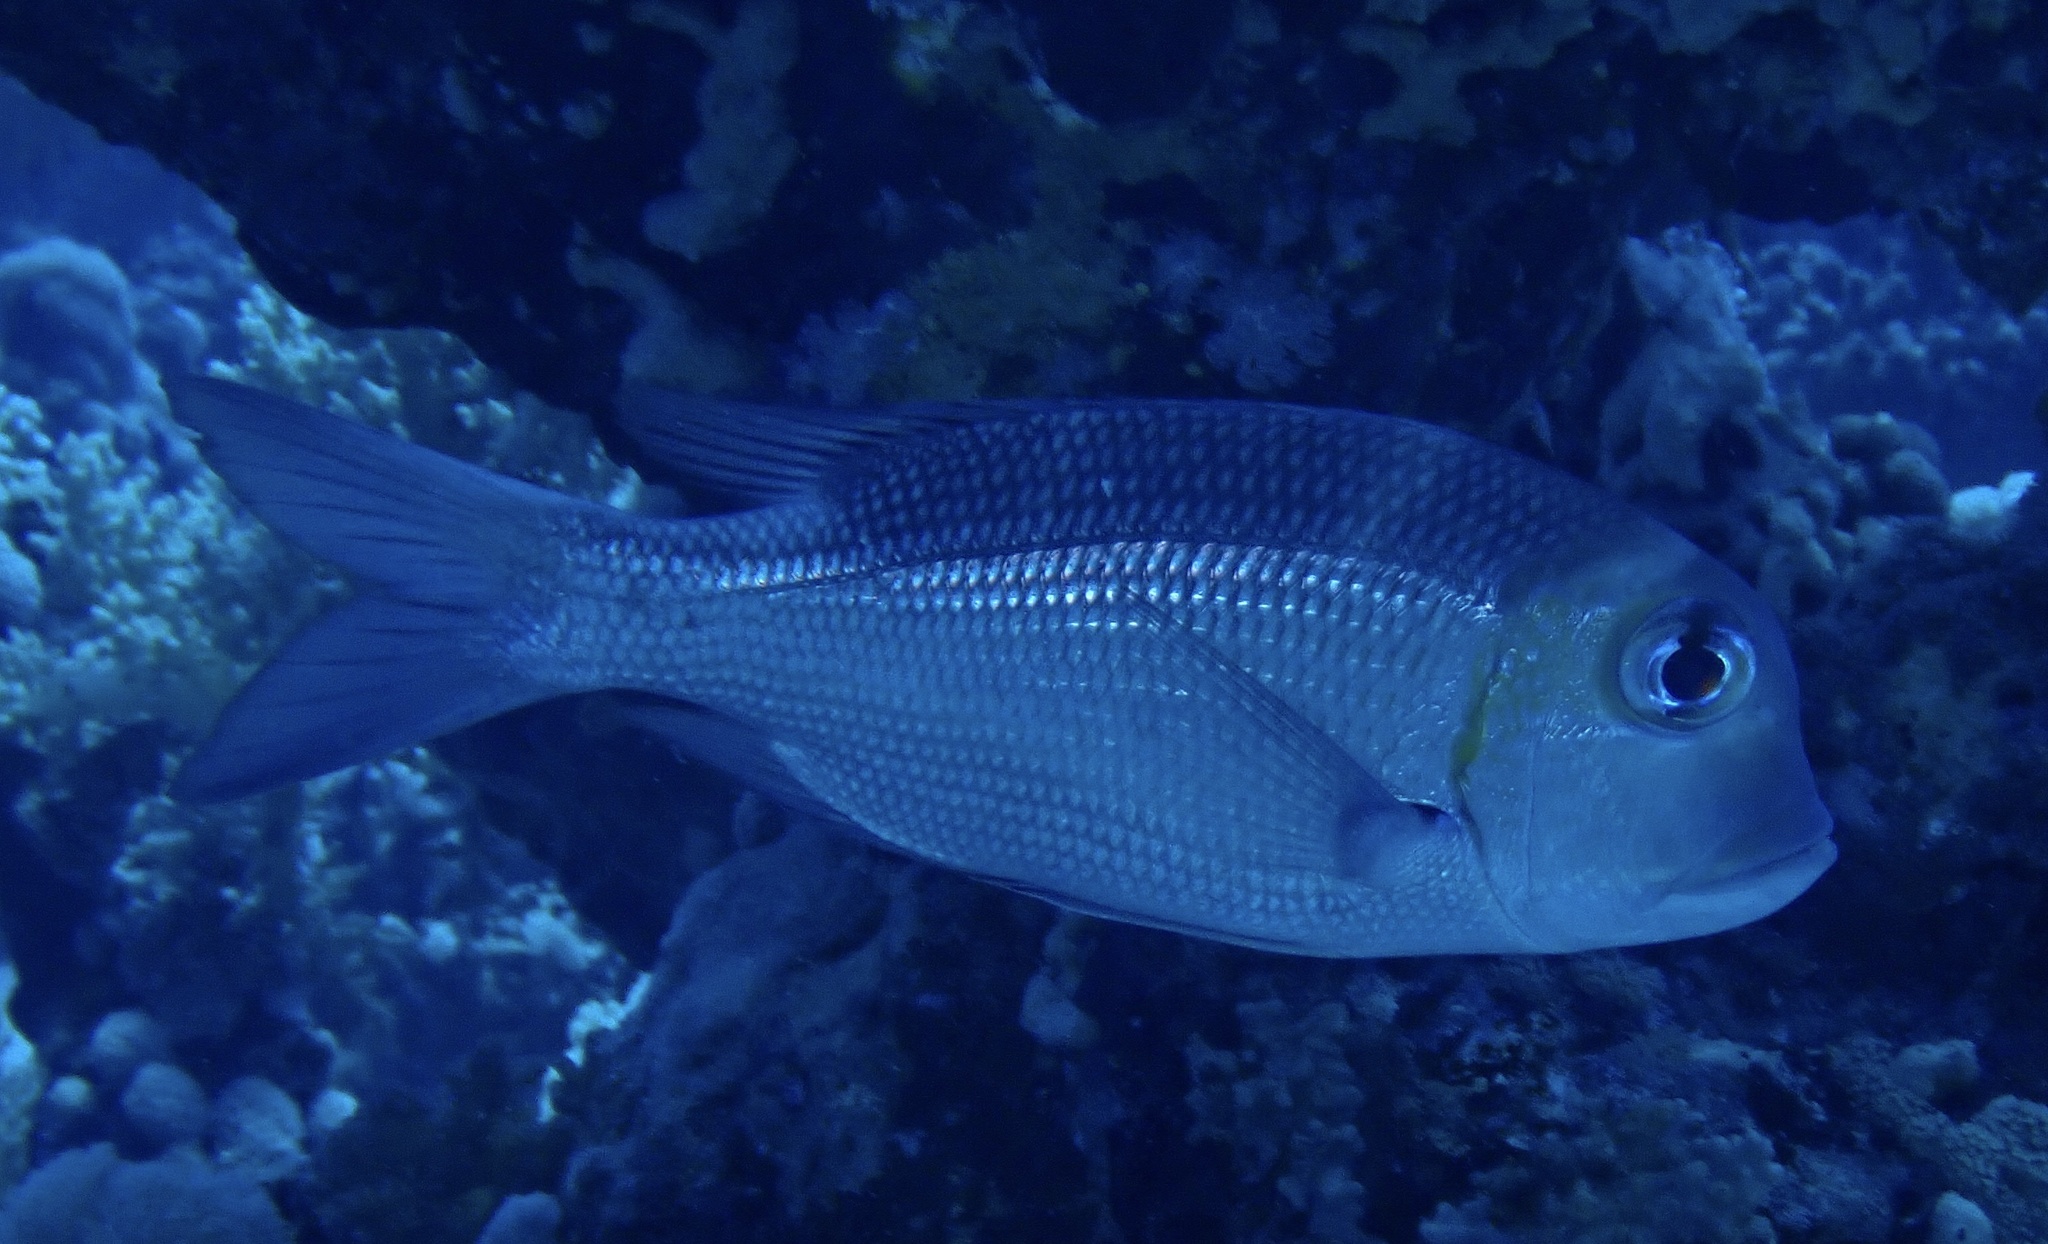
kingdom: Animalia
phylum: Chordata
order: Perciformes
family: Lethrinidae
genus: Monotaxis
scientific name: Monotaxis grandoculis
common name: Bigeye emperor
